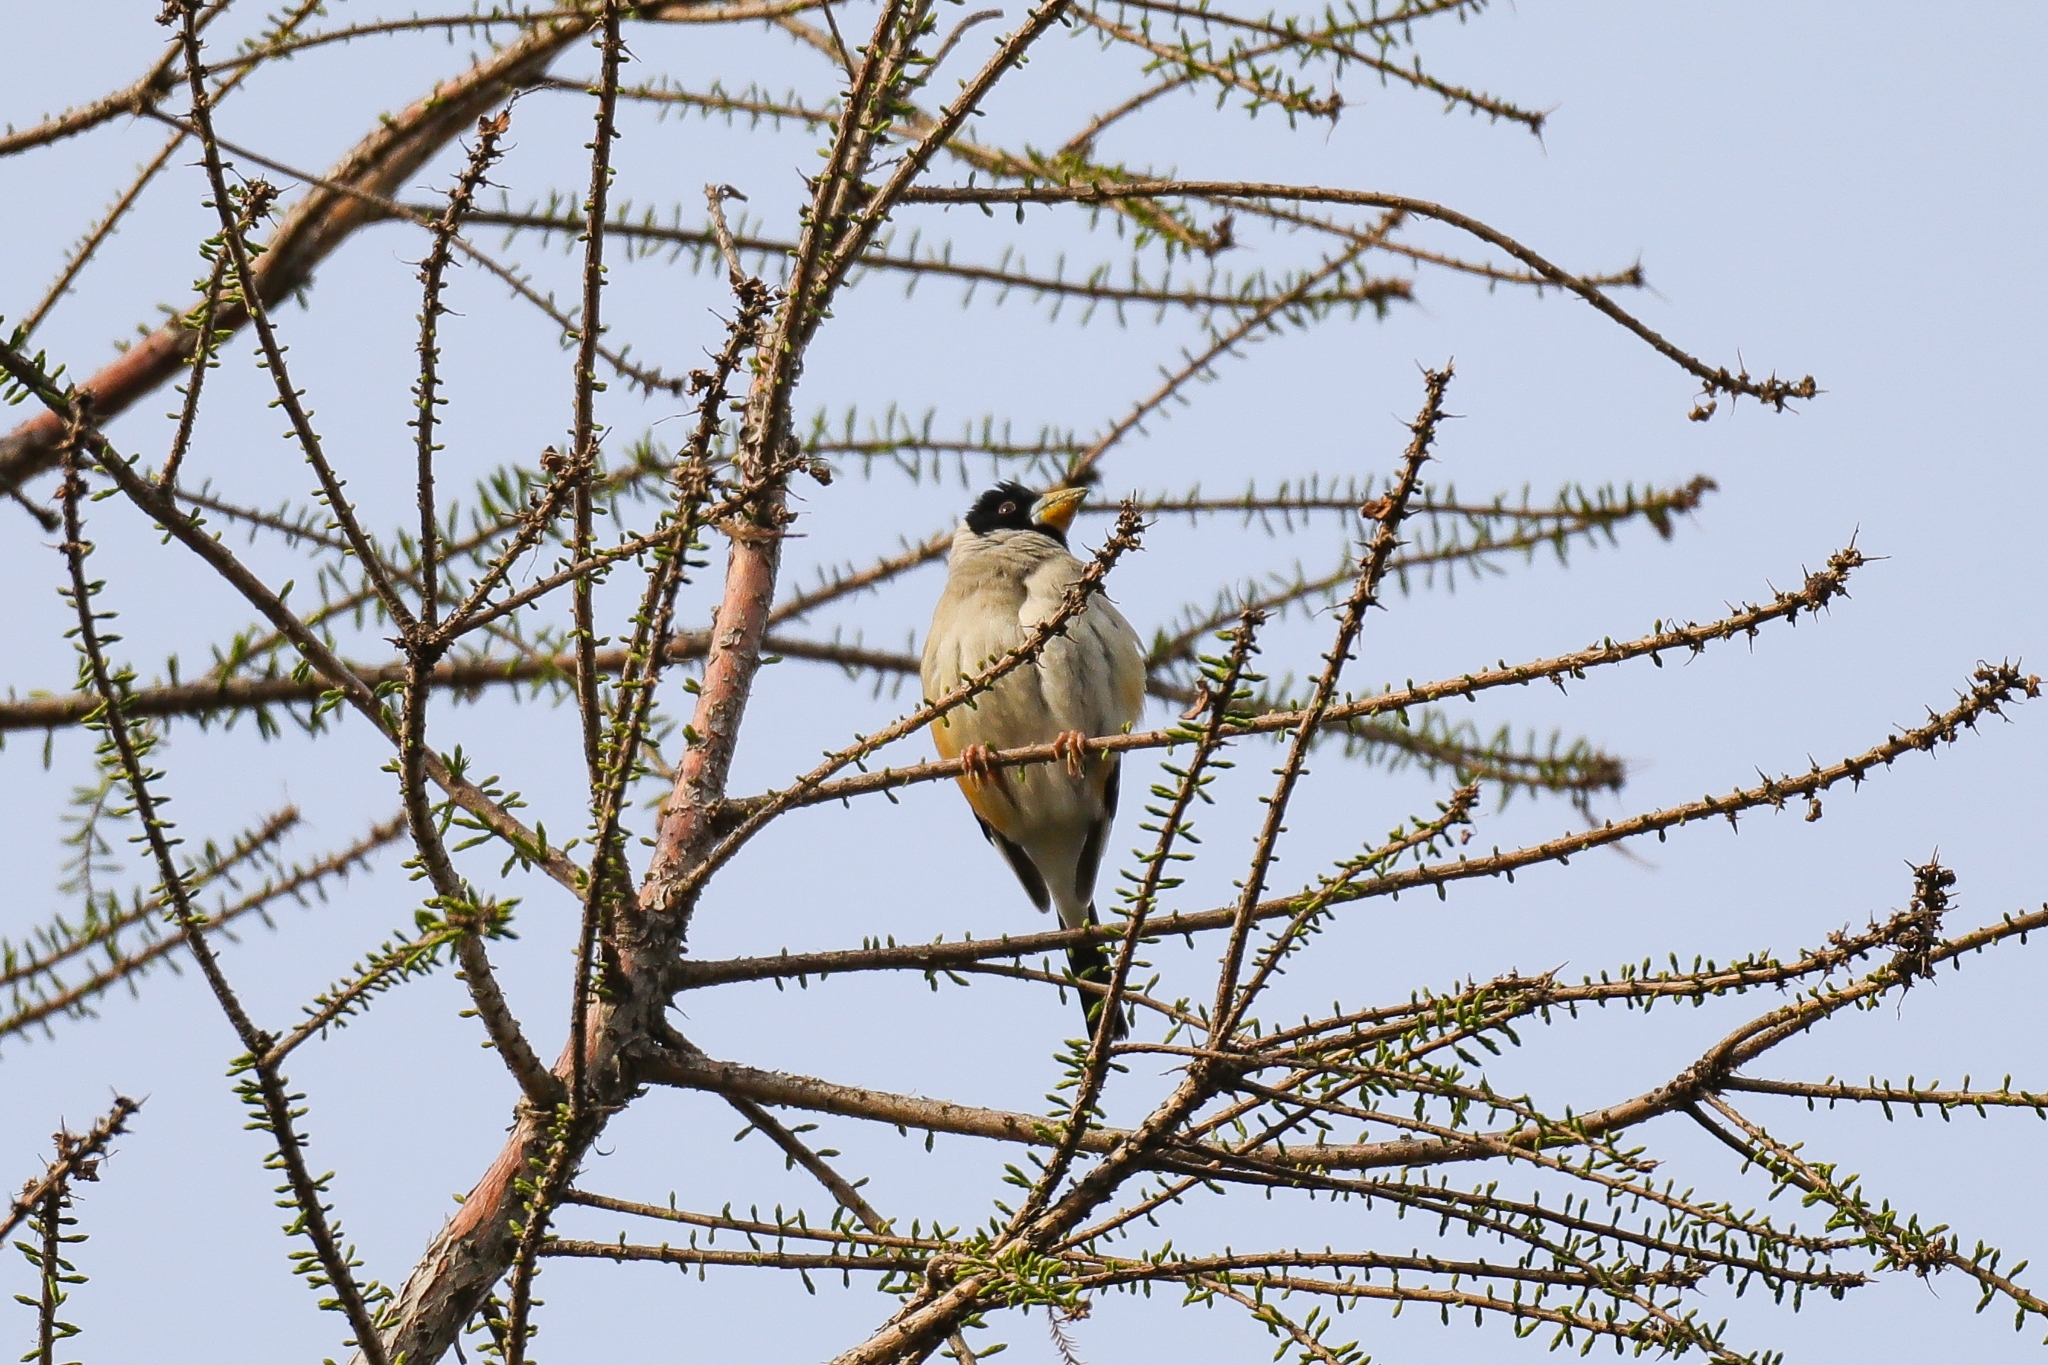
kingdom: Animalia
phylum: Chordata
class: Aves
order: Passeriformes
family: Fringillidae
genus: Eophona
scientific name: Eophona migratoria
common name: Yellow-billed grosbeak
